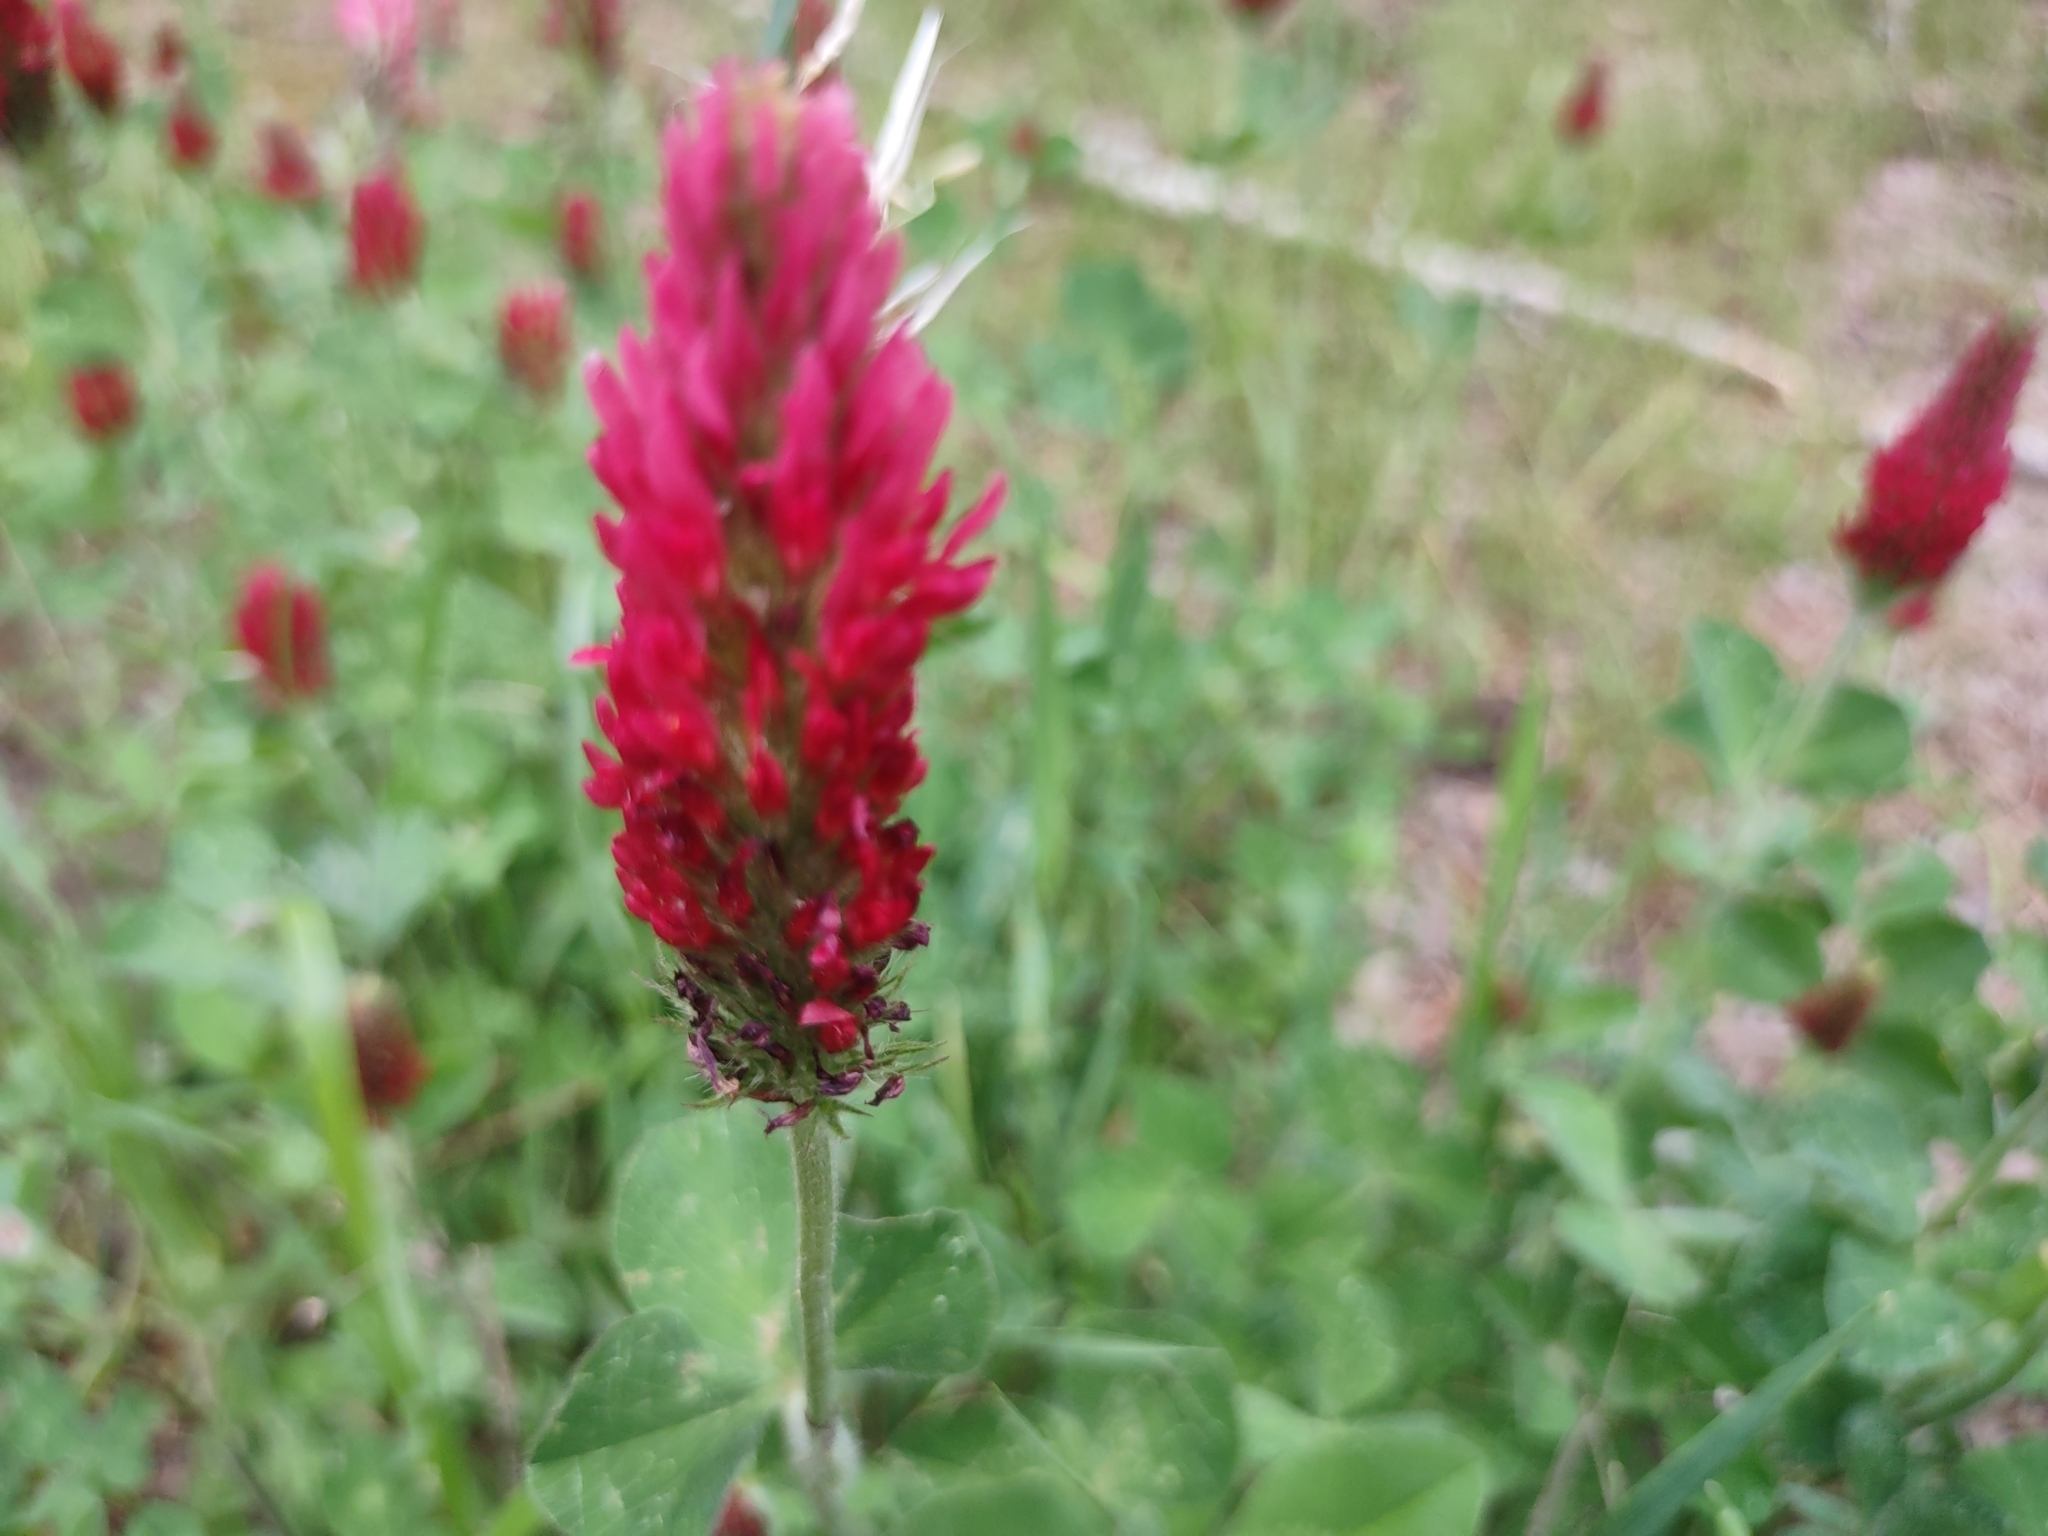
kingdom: Plantae
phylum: Tracheophyta
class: Magnoliopsida
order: Fabales
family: Fabaceae
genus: Trifolium
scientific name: Trifolium incarnatum
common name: Crimson clover
